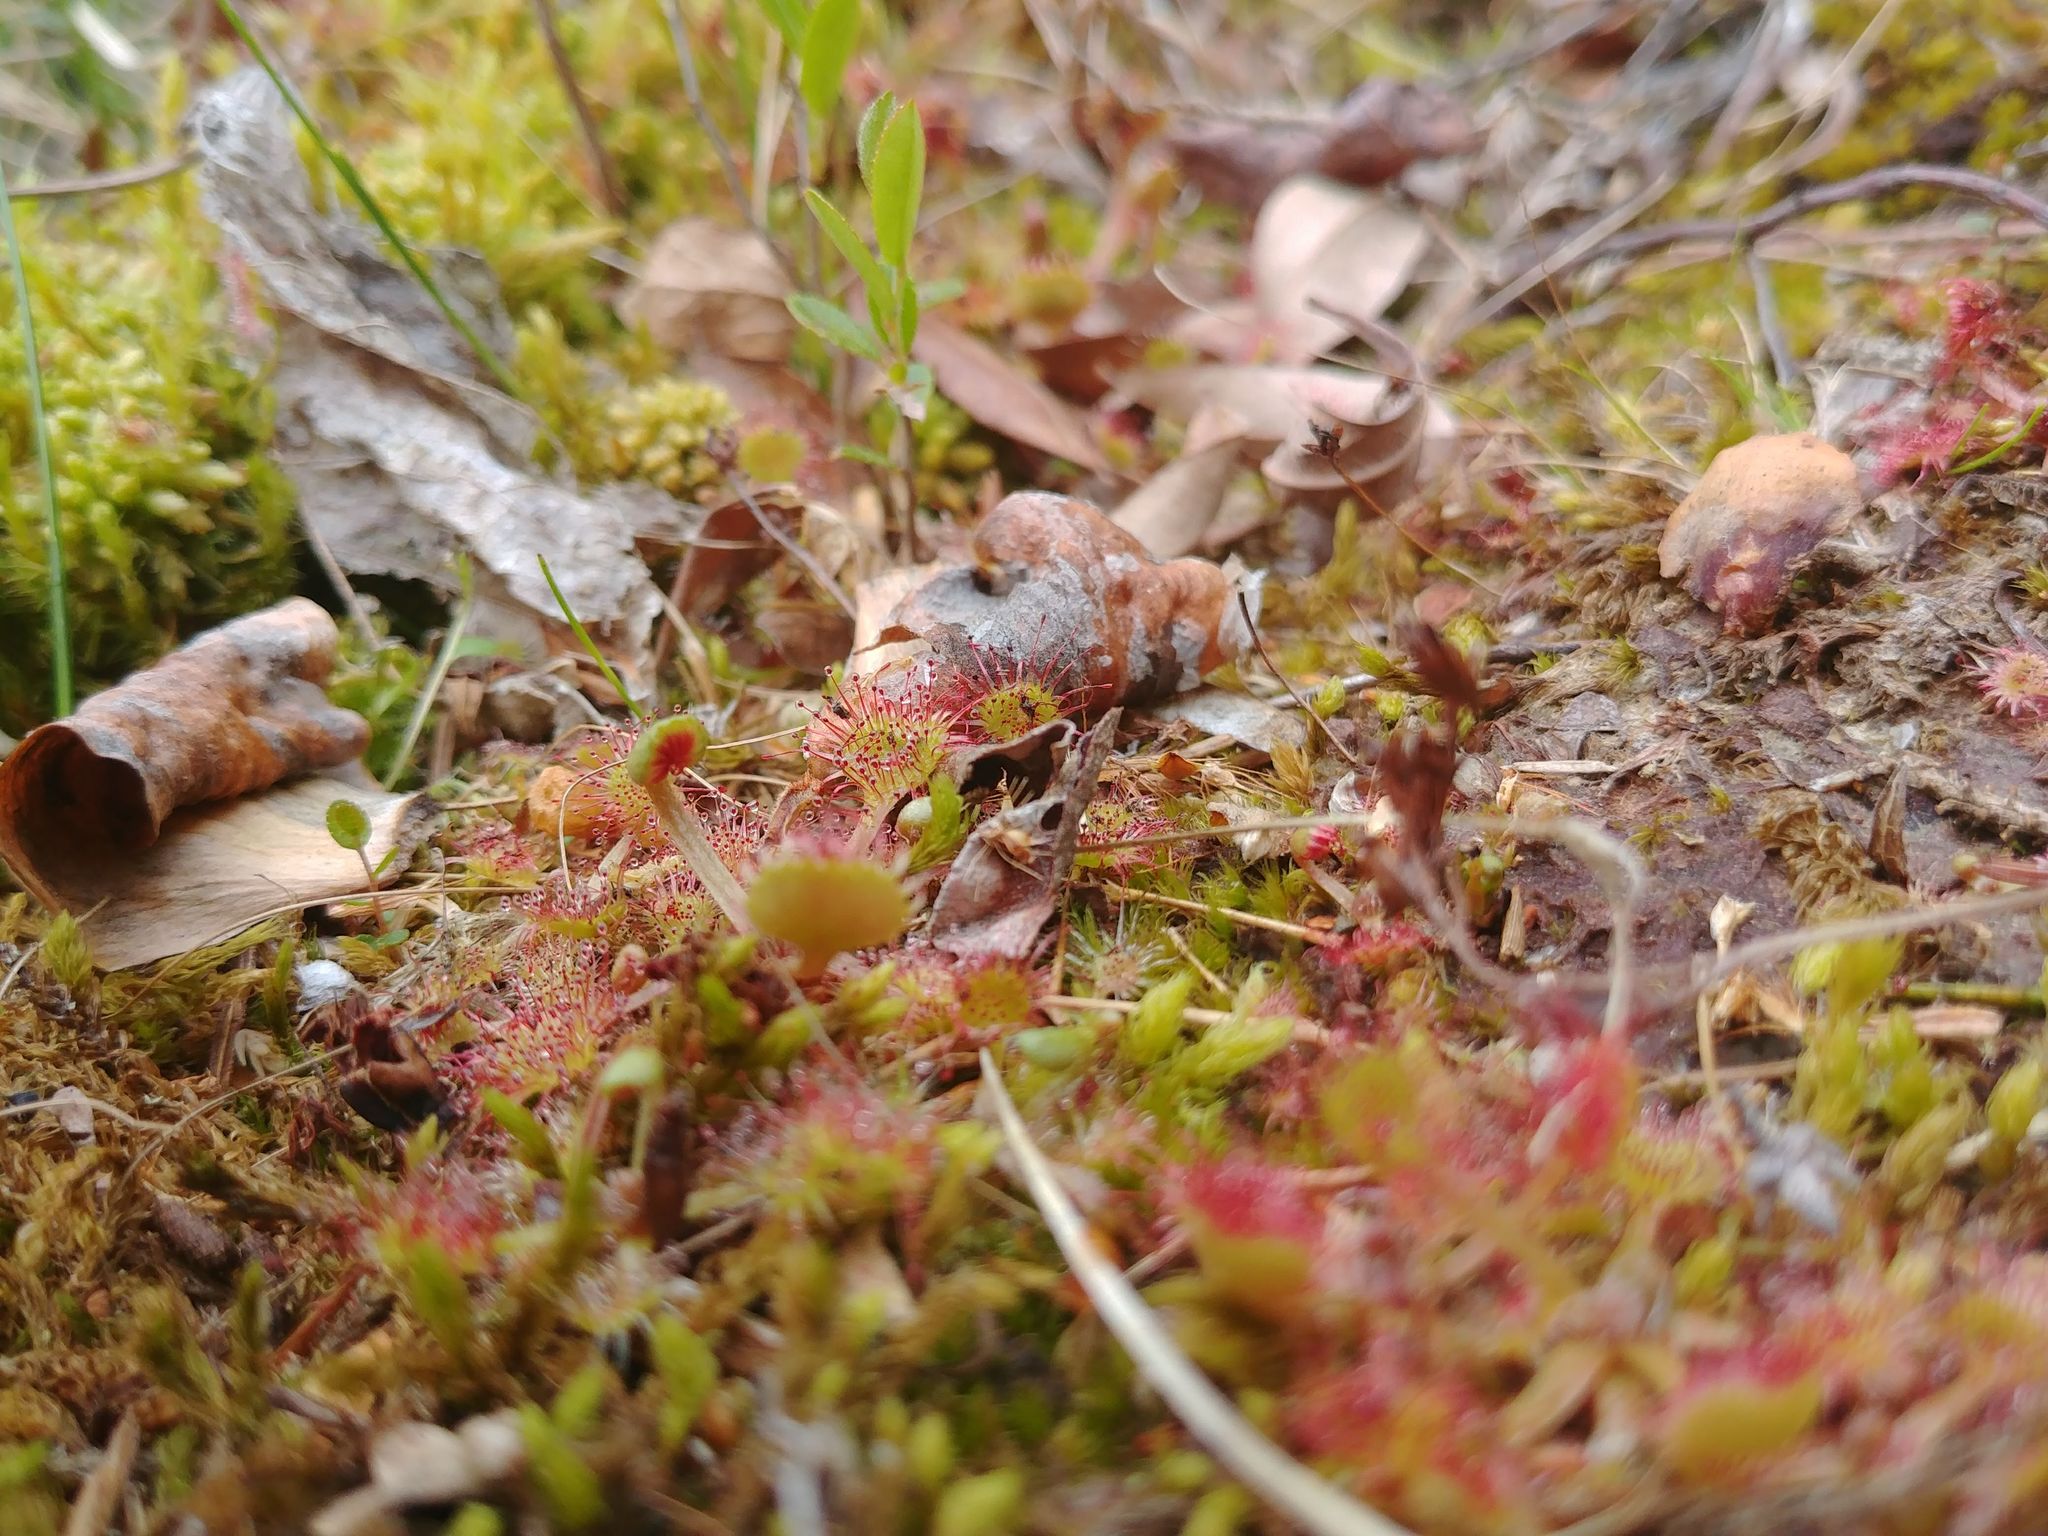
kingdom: Plantae
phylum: Tracheophyta
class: Magnoliopsida
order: Caryophyllales
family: Droseraceae
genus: Drosera
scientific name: Drosera rotundifolia
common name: Round-leaved sundew
